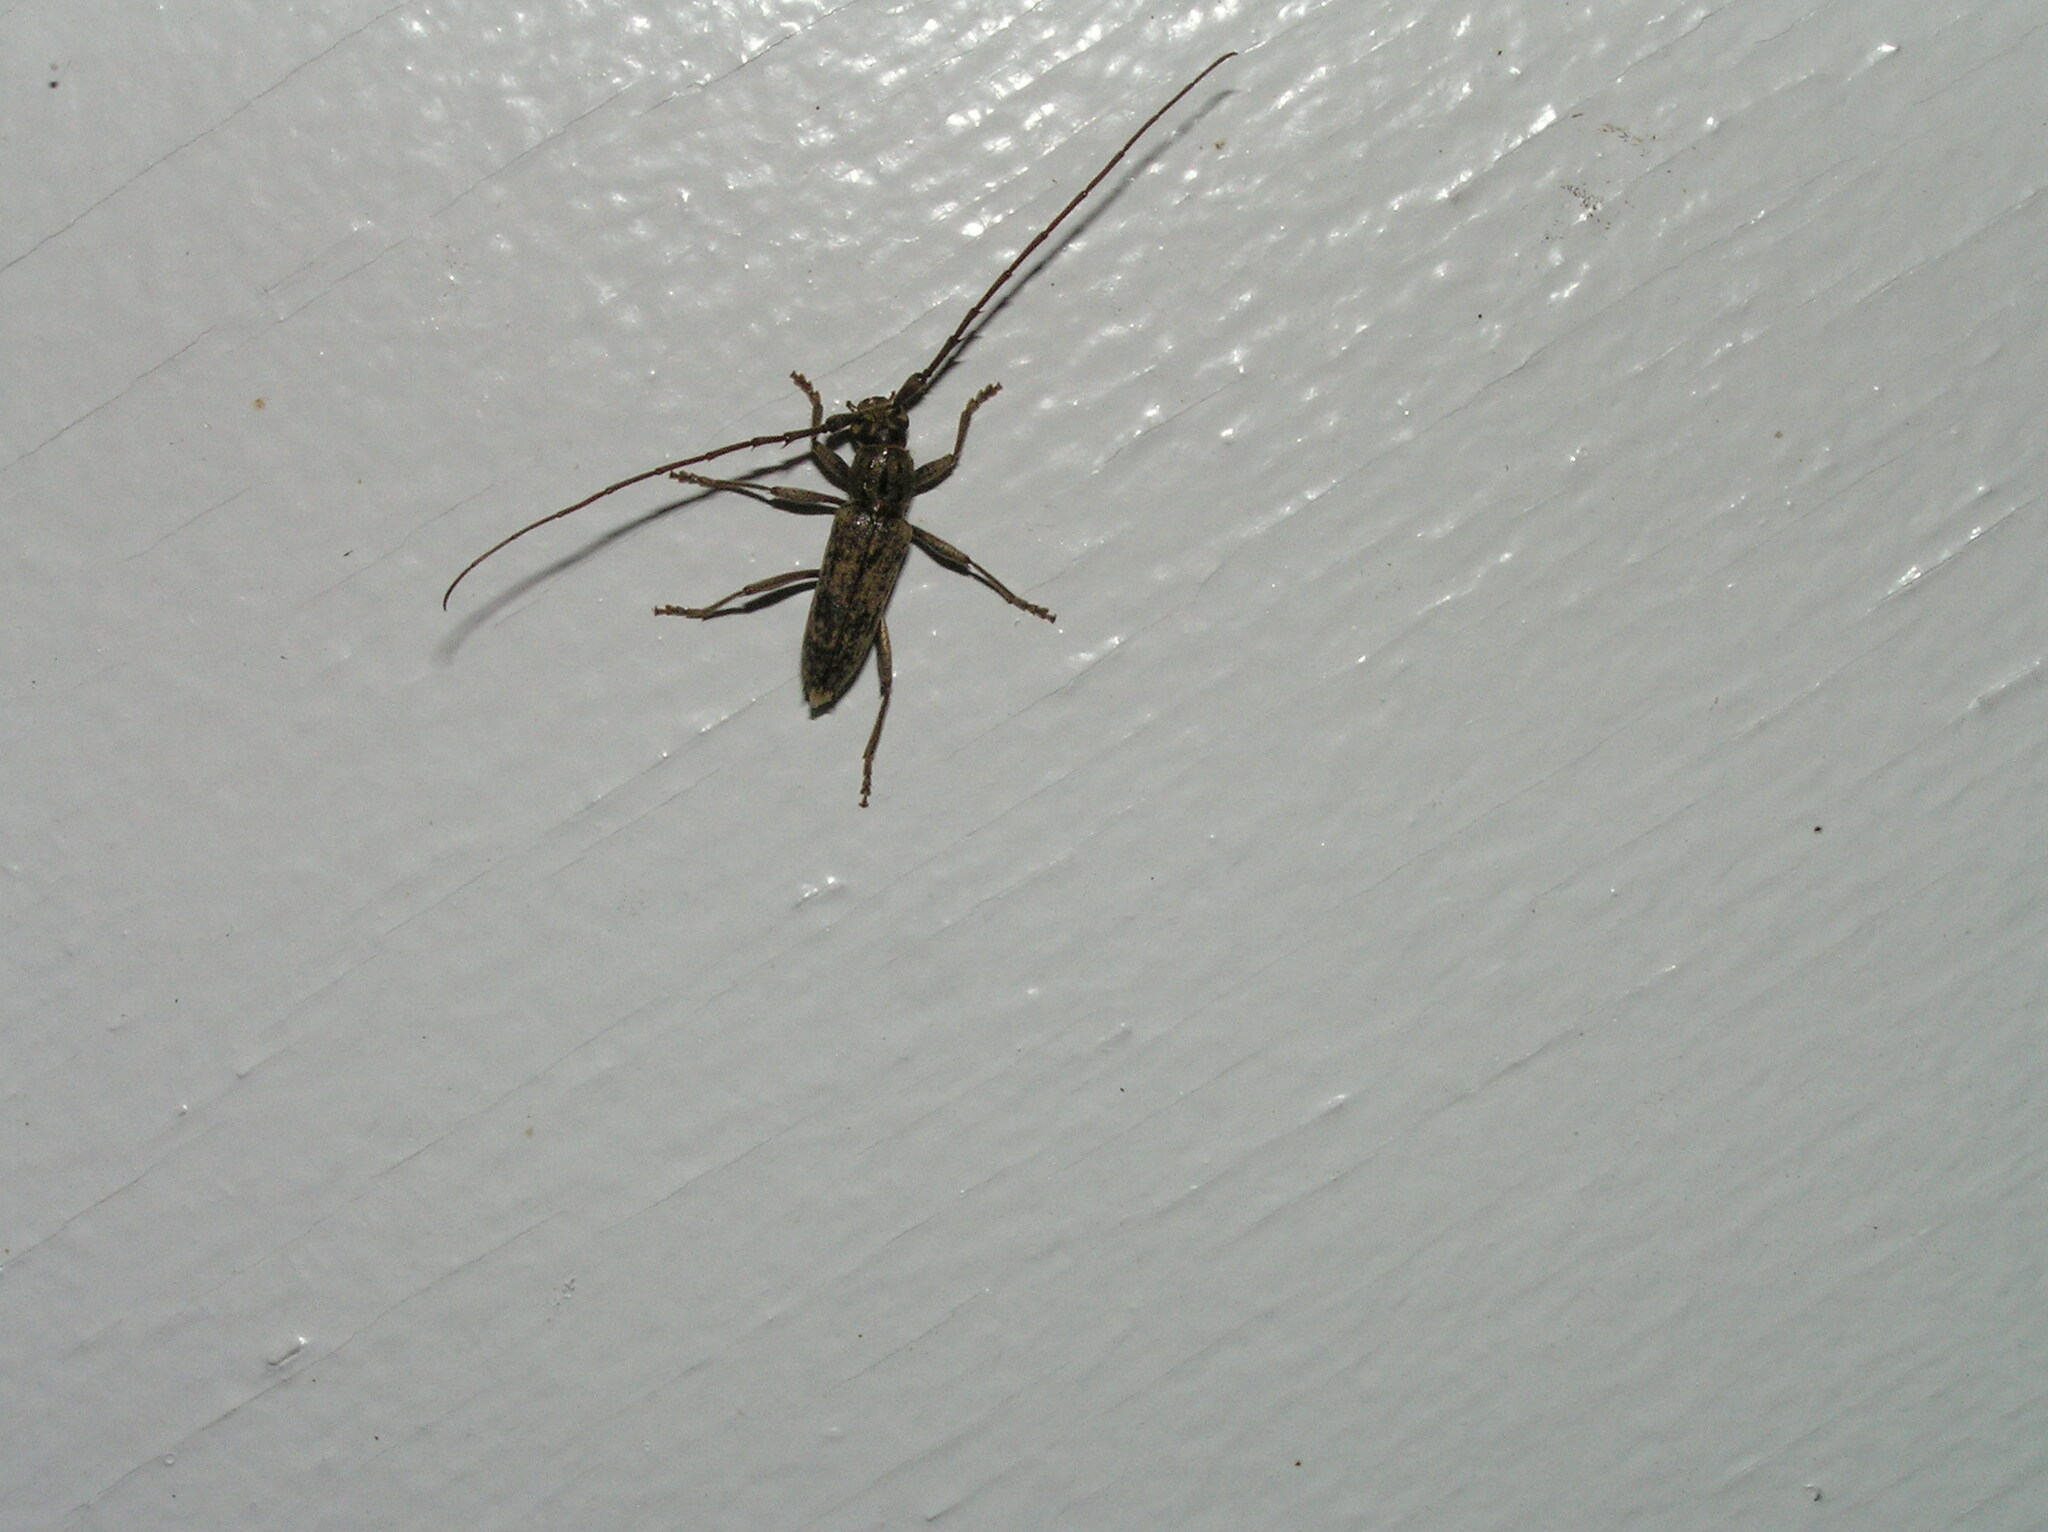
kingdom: Animalia
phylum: Arthropoda
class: Insecta
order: Coleoptera
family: Cerambycidae
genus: Elaphidion
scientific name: Elaphidion mucronatum
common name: Spined oak borer
